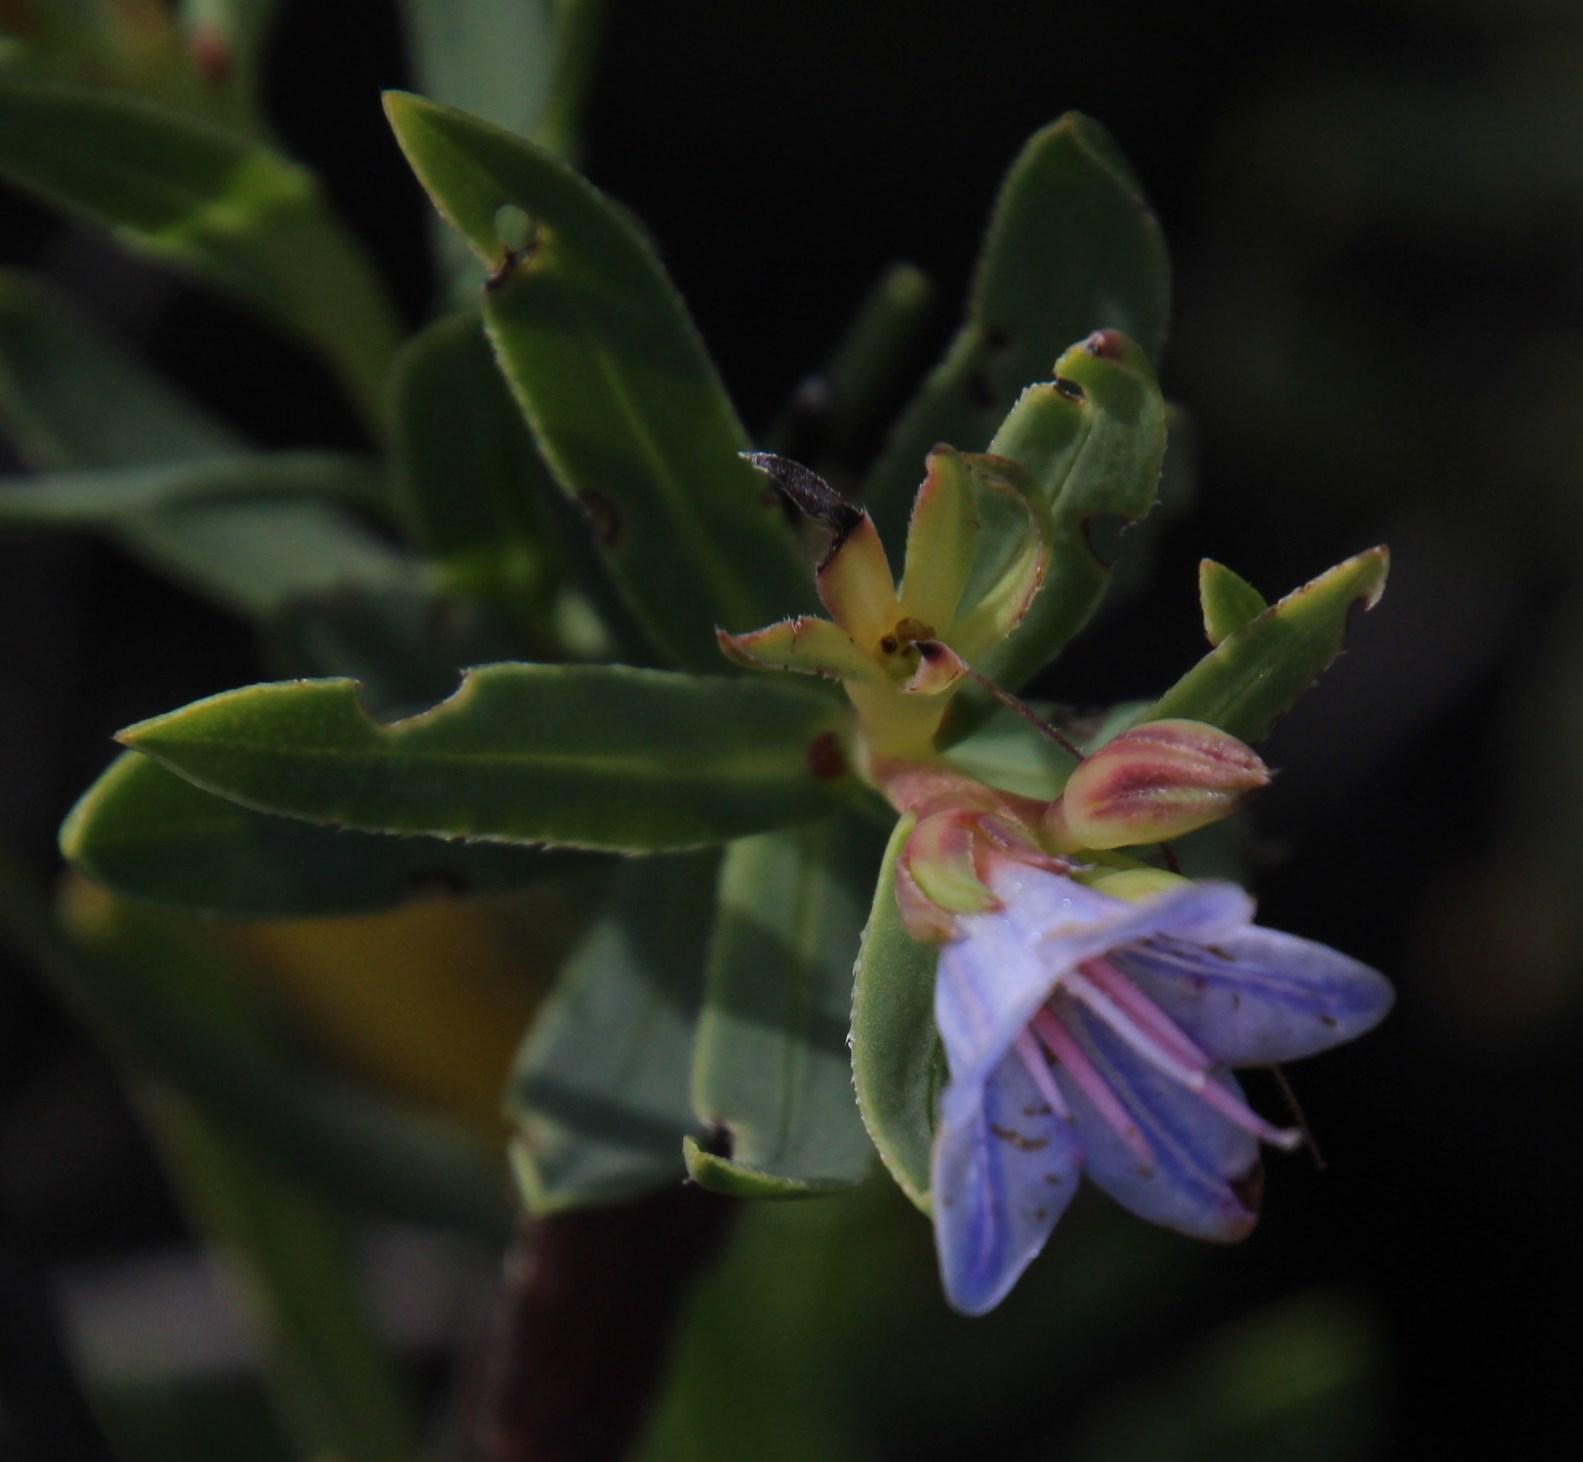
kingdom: Plantae
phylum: Tracheophyta
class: Magnoliopsida
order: Boraginales
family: Boraginaceae
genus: Lobostemon
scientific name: Lobostemon glaucophyllus
